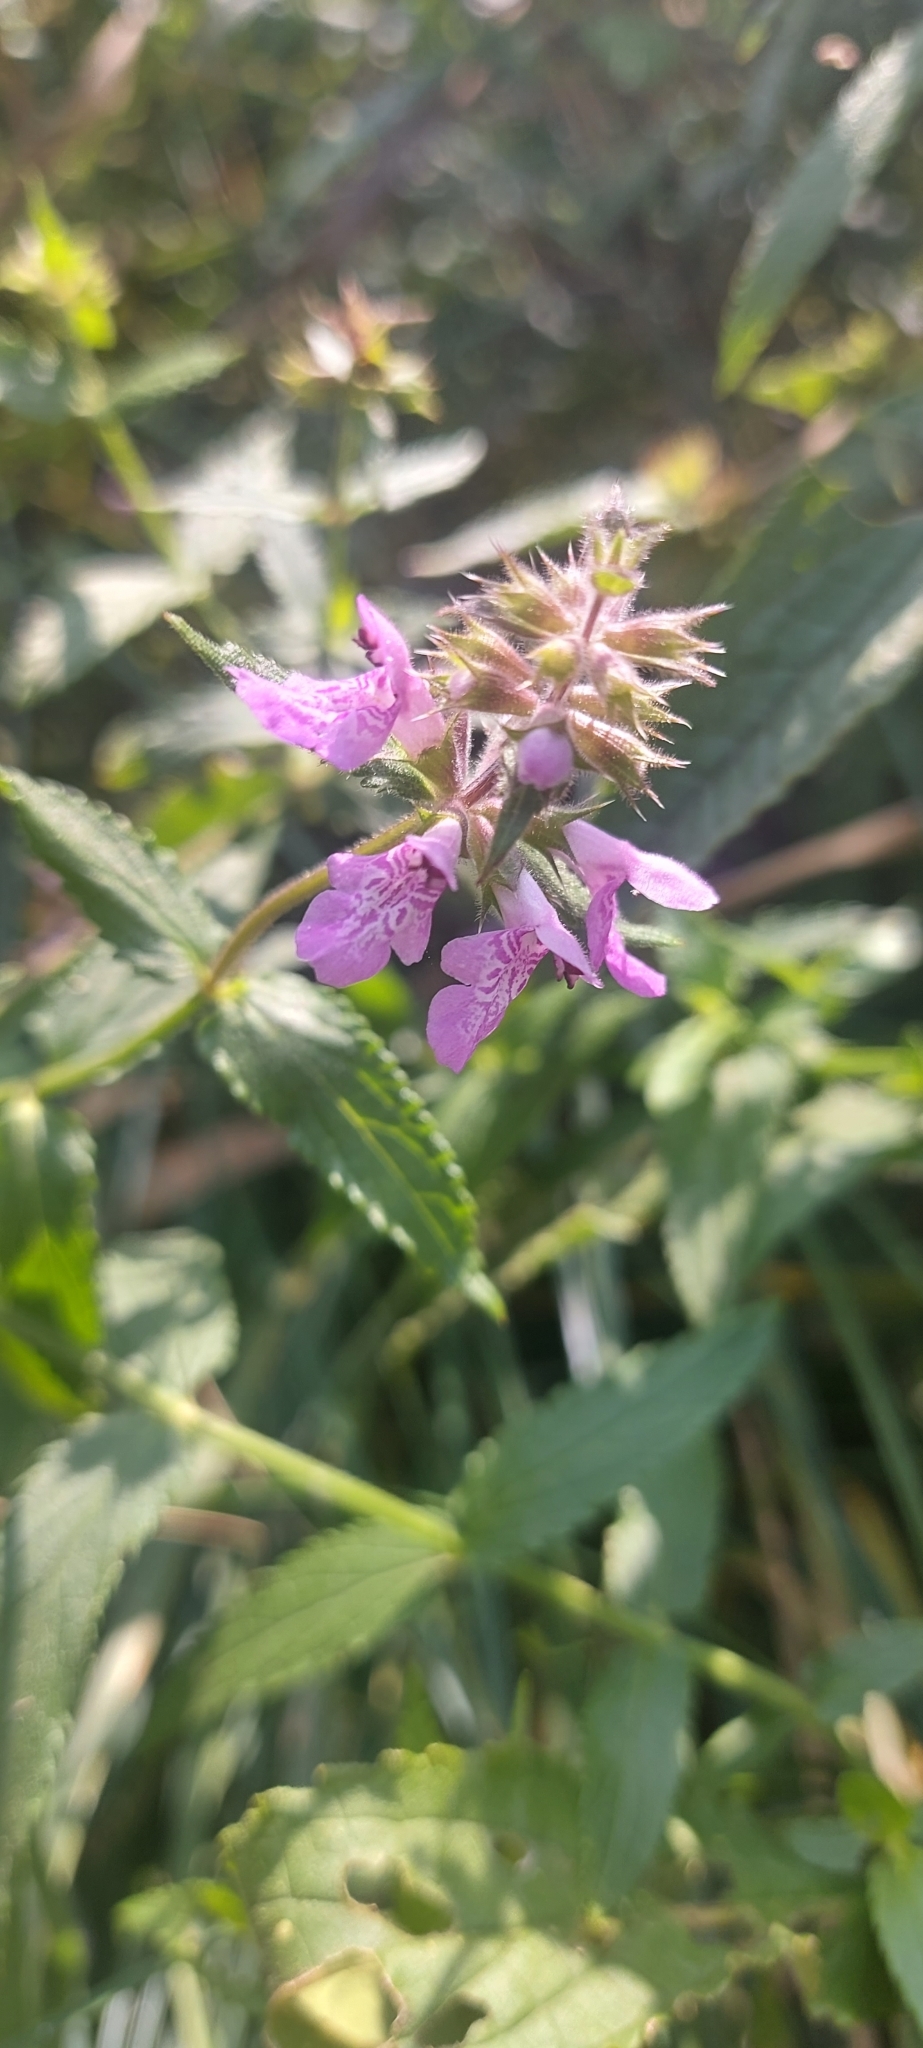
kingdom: Plantae
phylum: Tracheophyta
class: Magnoliopsida
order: Lamiales
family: Lamiaceae
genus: Stachys
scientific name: Stachys palustris
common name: Marsh woundwort
